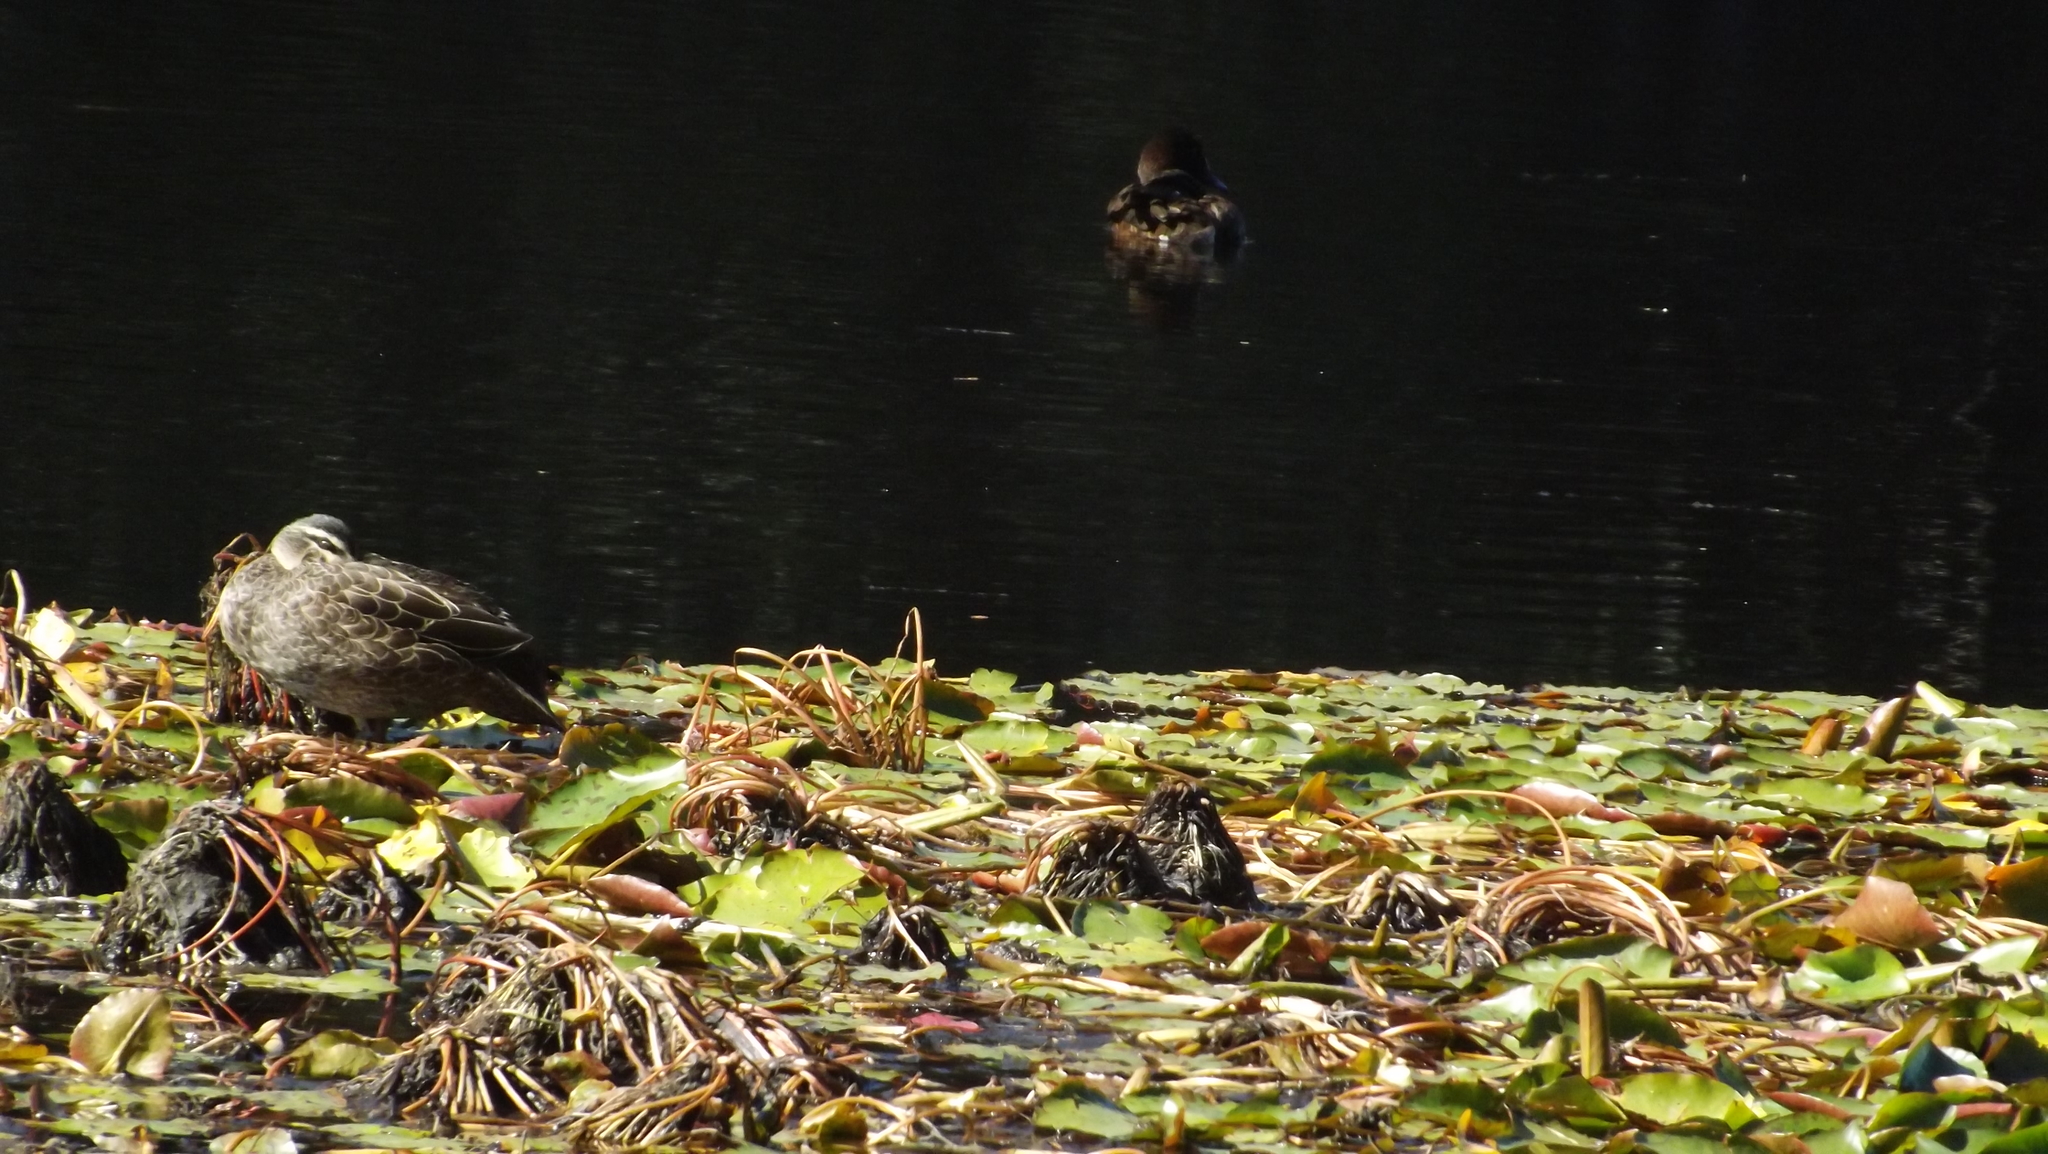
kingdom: Animalia
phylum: Chordata
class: Aves
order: Anseriformes
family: Anatidae
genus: Anas
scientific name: Anas superciliosa
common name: Pacific black duck
